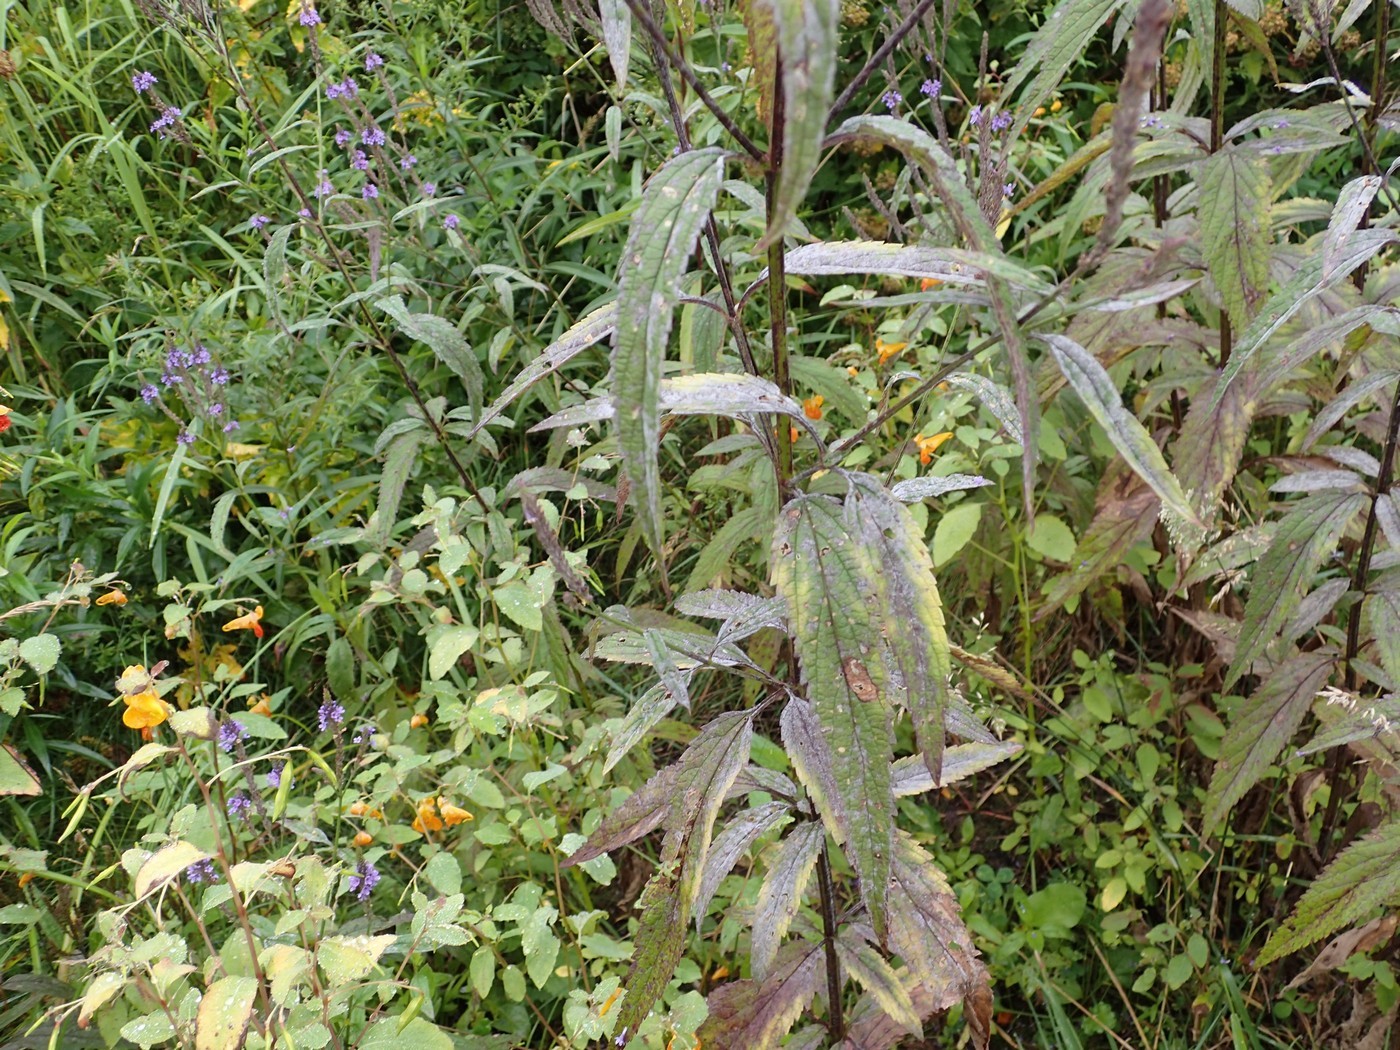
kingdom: Plantae
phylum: Tracheophyta
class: Magnoliopsida
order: Lamiales
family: Verbenaceae
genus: Verbena
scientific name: Verbena hastata
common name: American blue vervain
